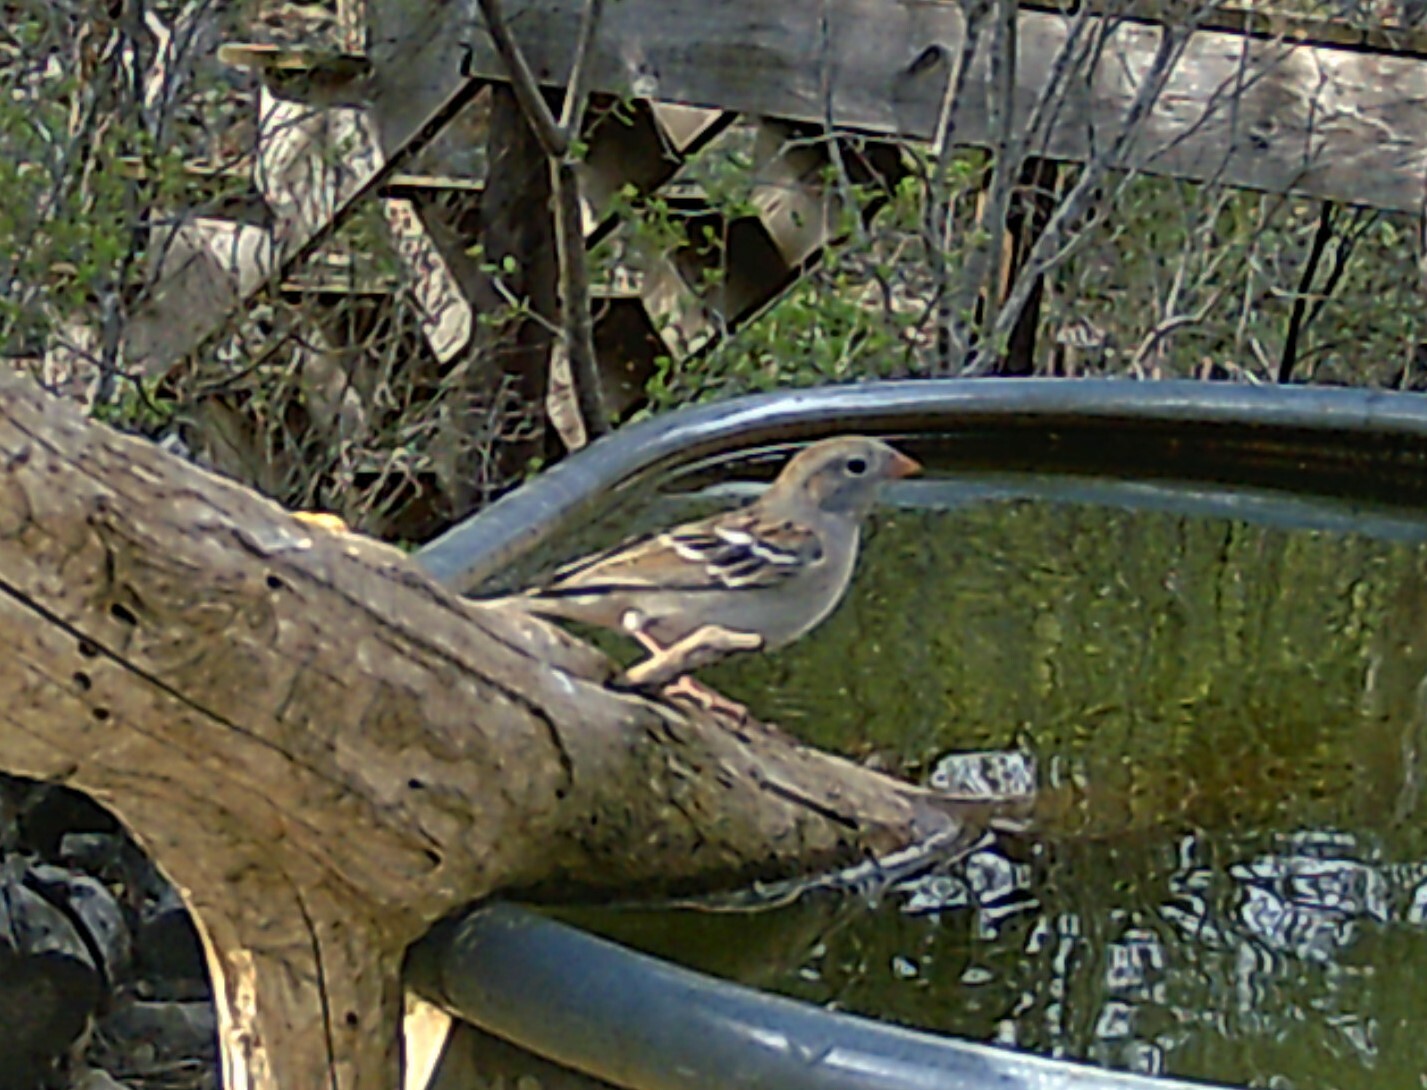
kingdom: Animalia
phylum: Chordata
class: Aves
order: Passeriformes
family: Passerellidae
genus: Spizella
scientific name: Spizella pusilla
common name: Field sparrow
